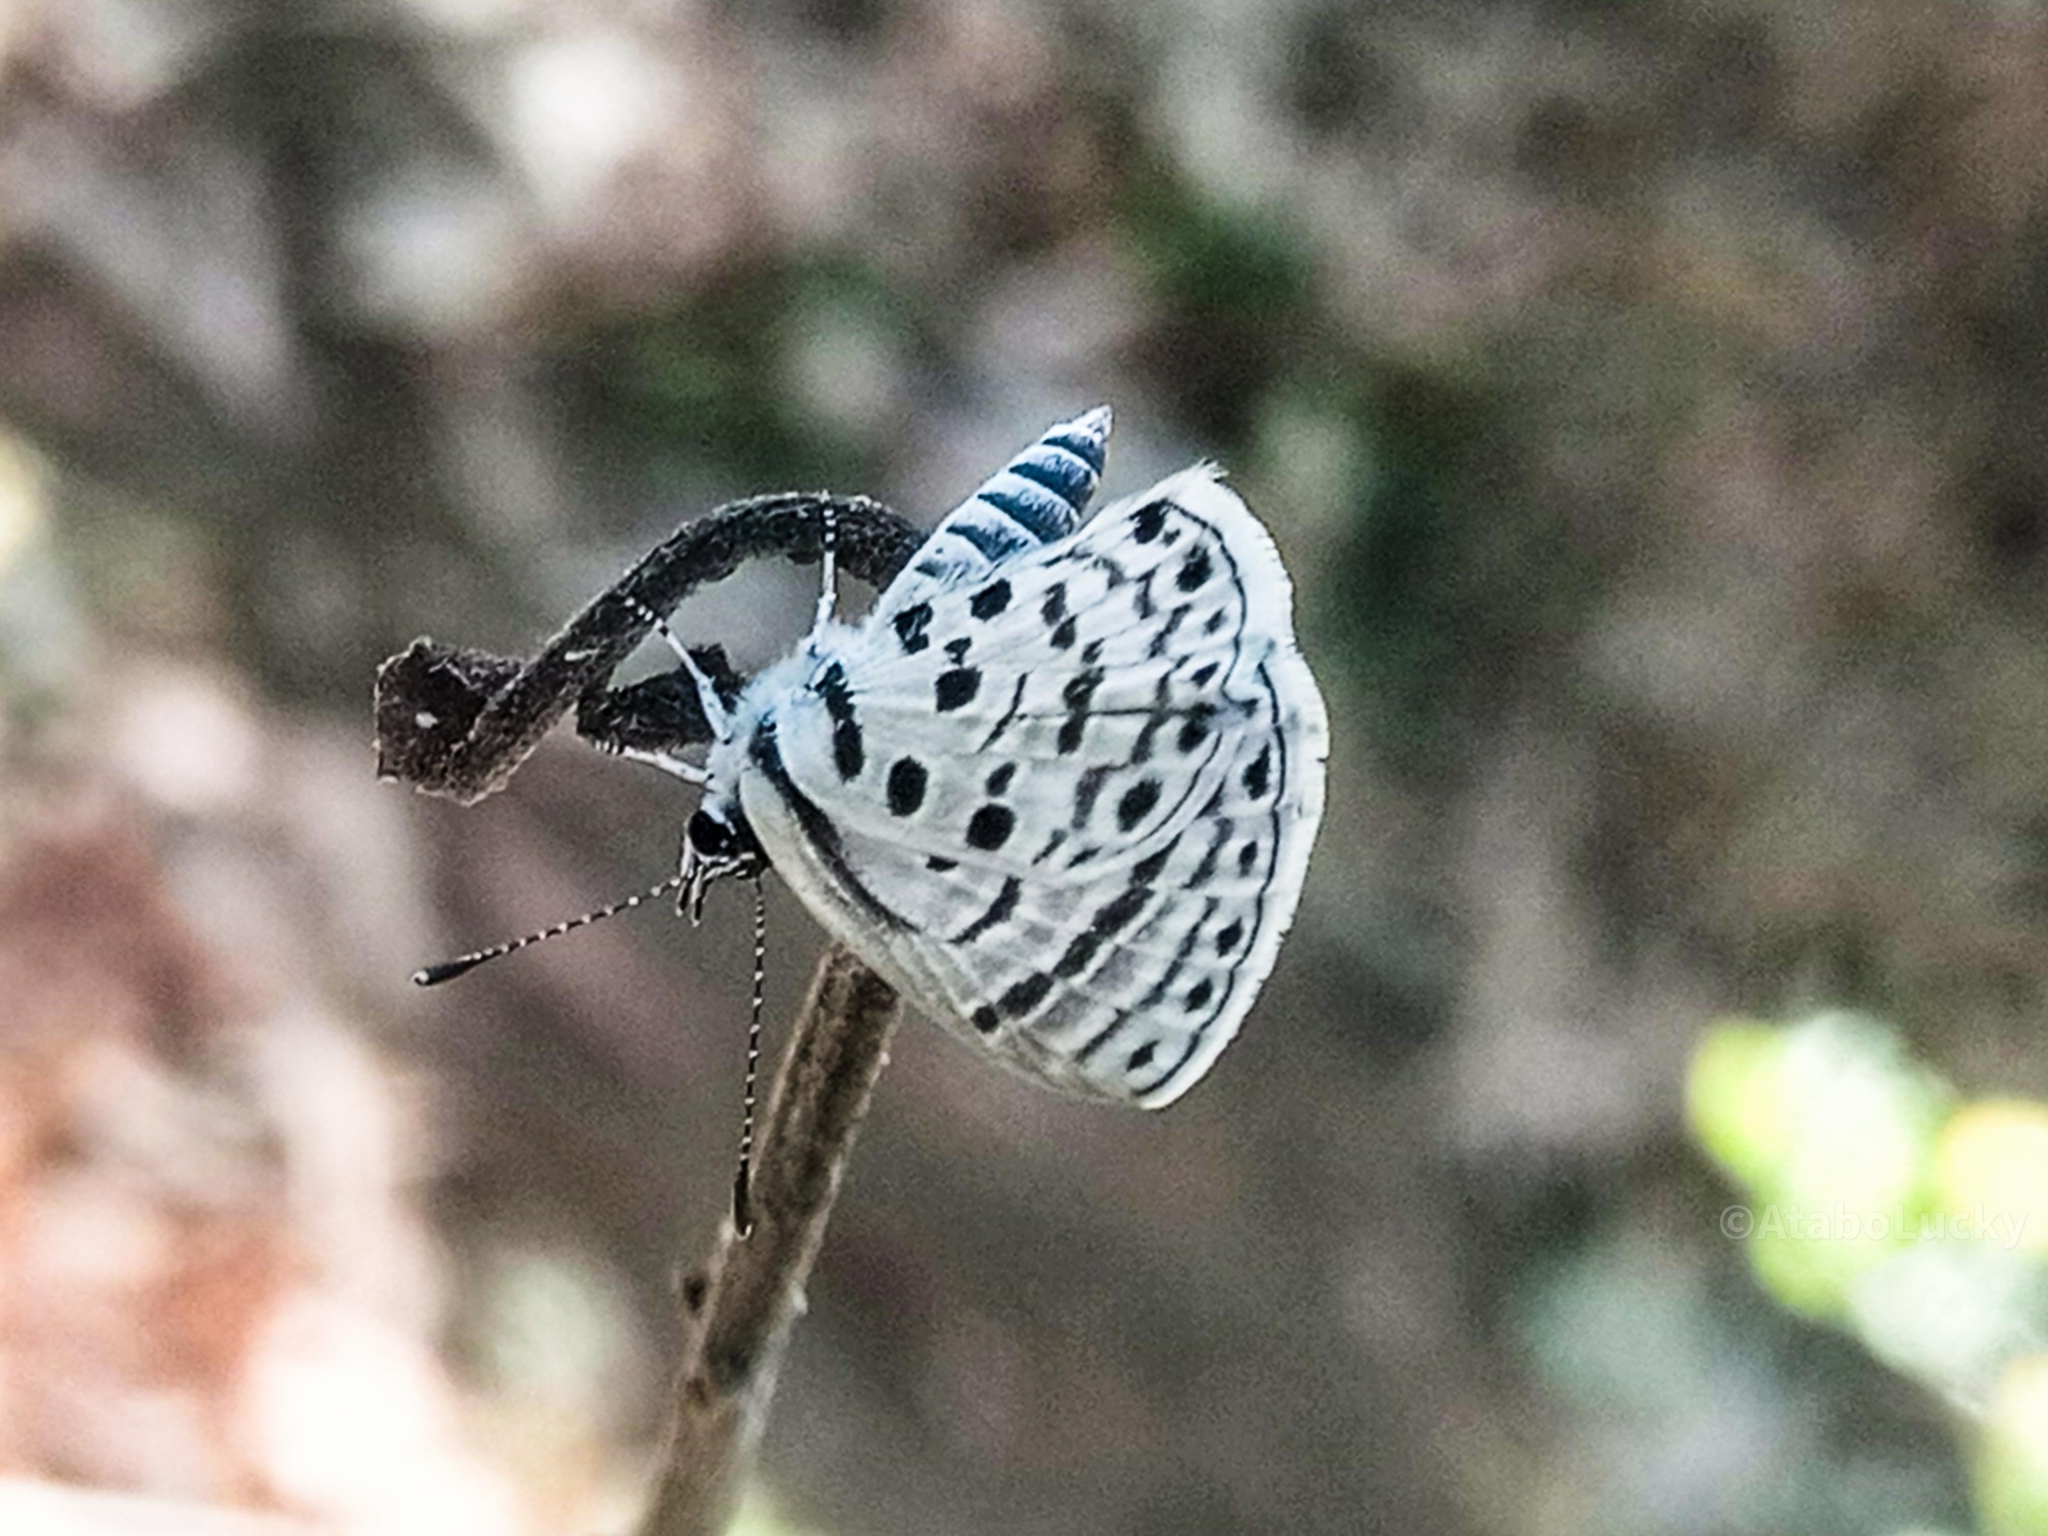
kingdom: Animalia
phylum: Arthropoda
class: Insecta
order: Lepidoptera
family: Lycaenidae
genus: Azanus
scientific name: Azanus moriqua
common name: Thorn-tree babul blue
